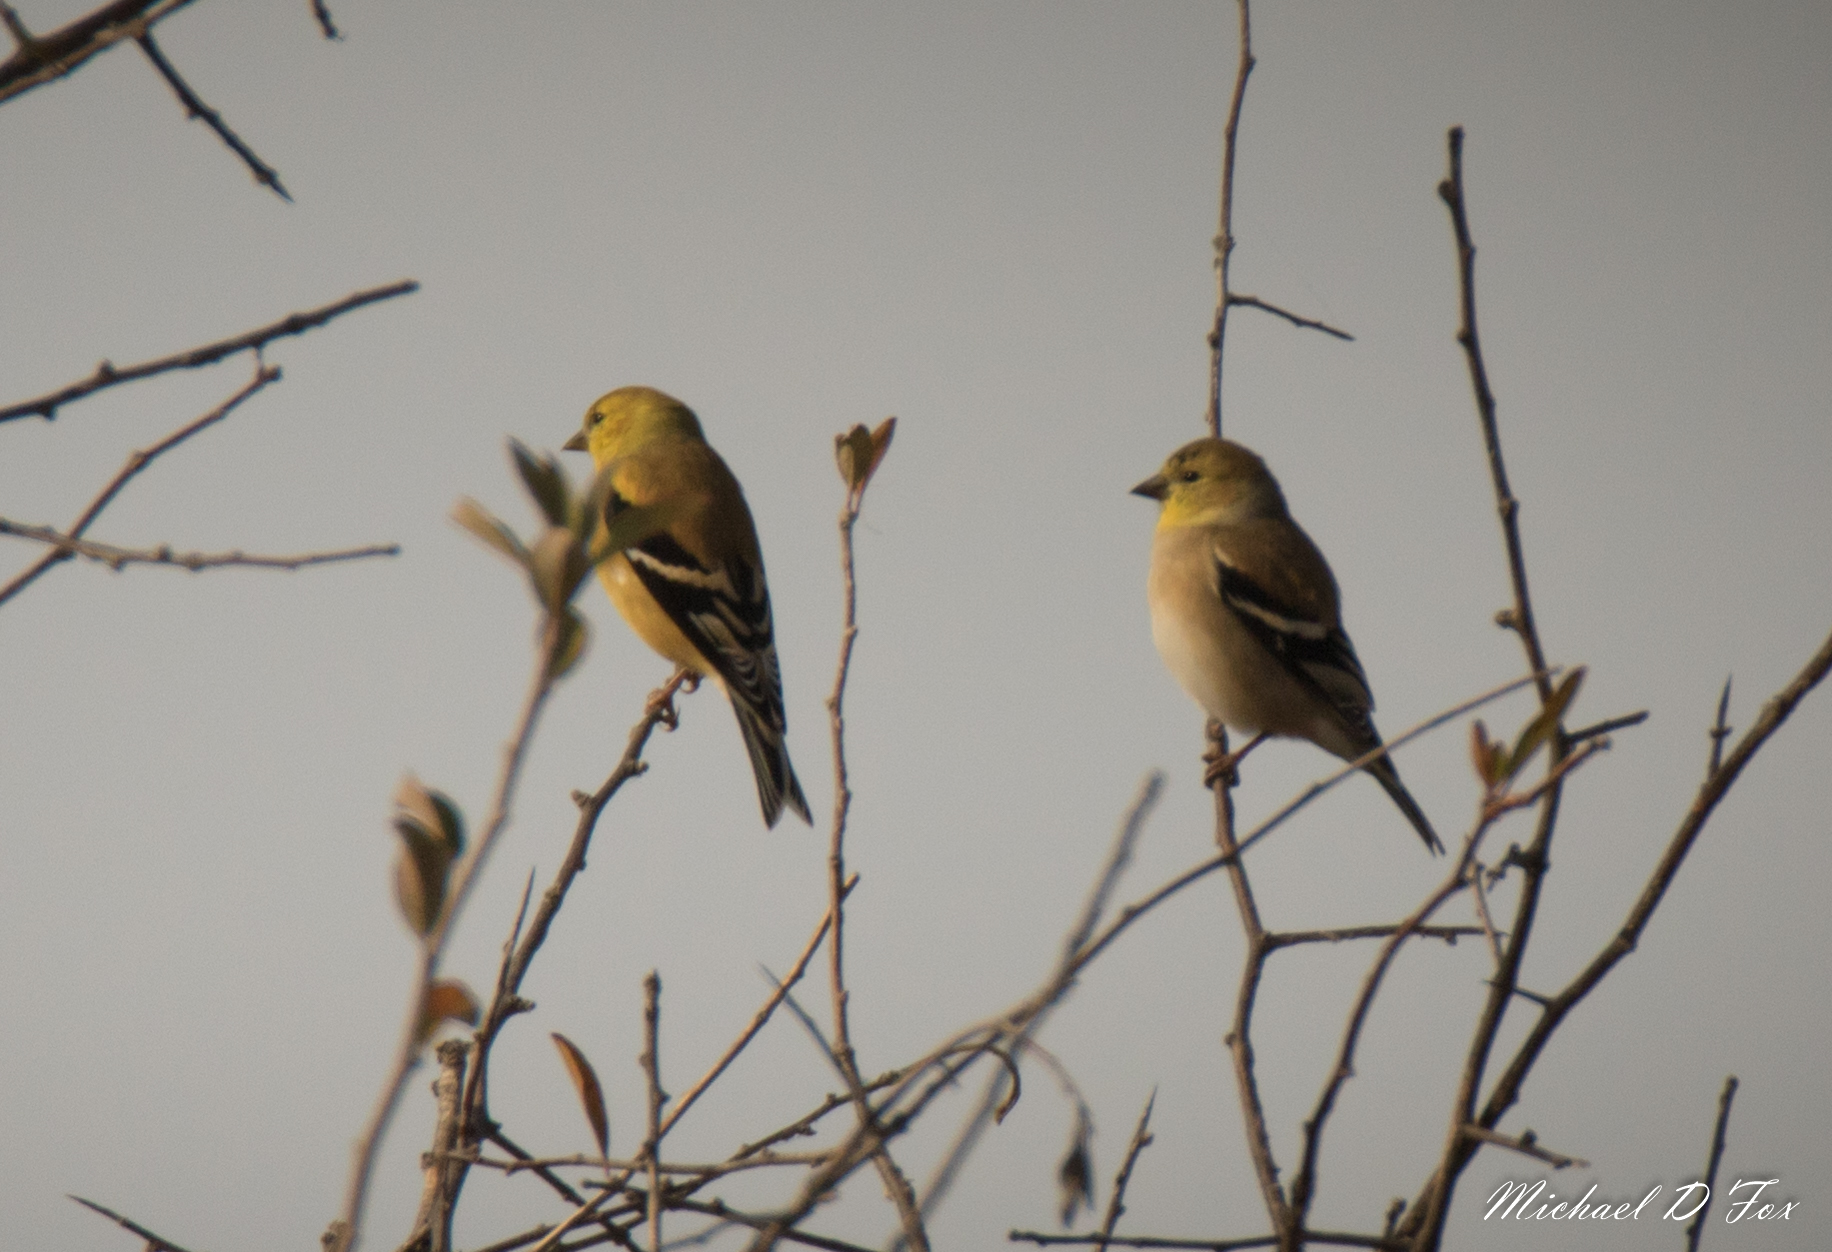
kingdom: Animalia
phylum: Chordata
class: Aves
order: Passeriformes
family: Fringillidae
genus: Spinus
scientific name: Spinus tristis
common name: American goldfinch
